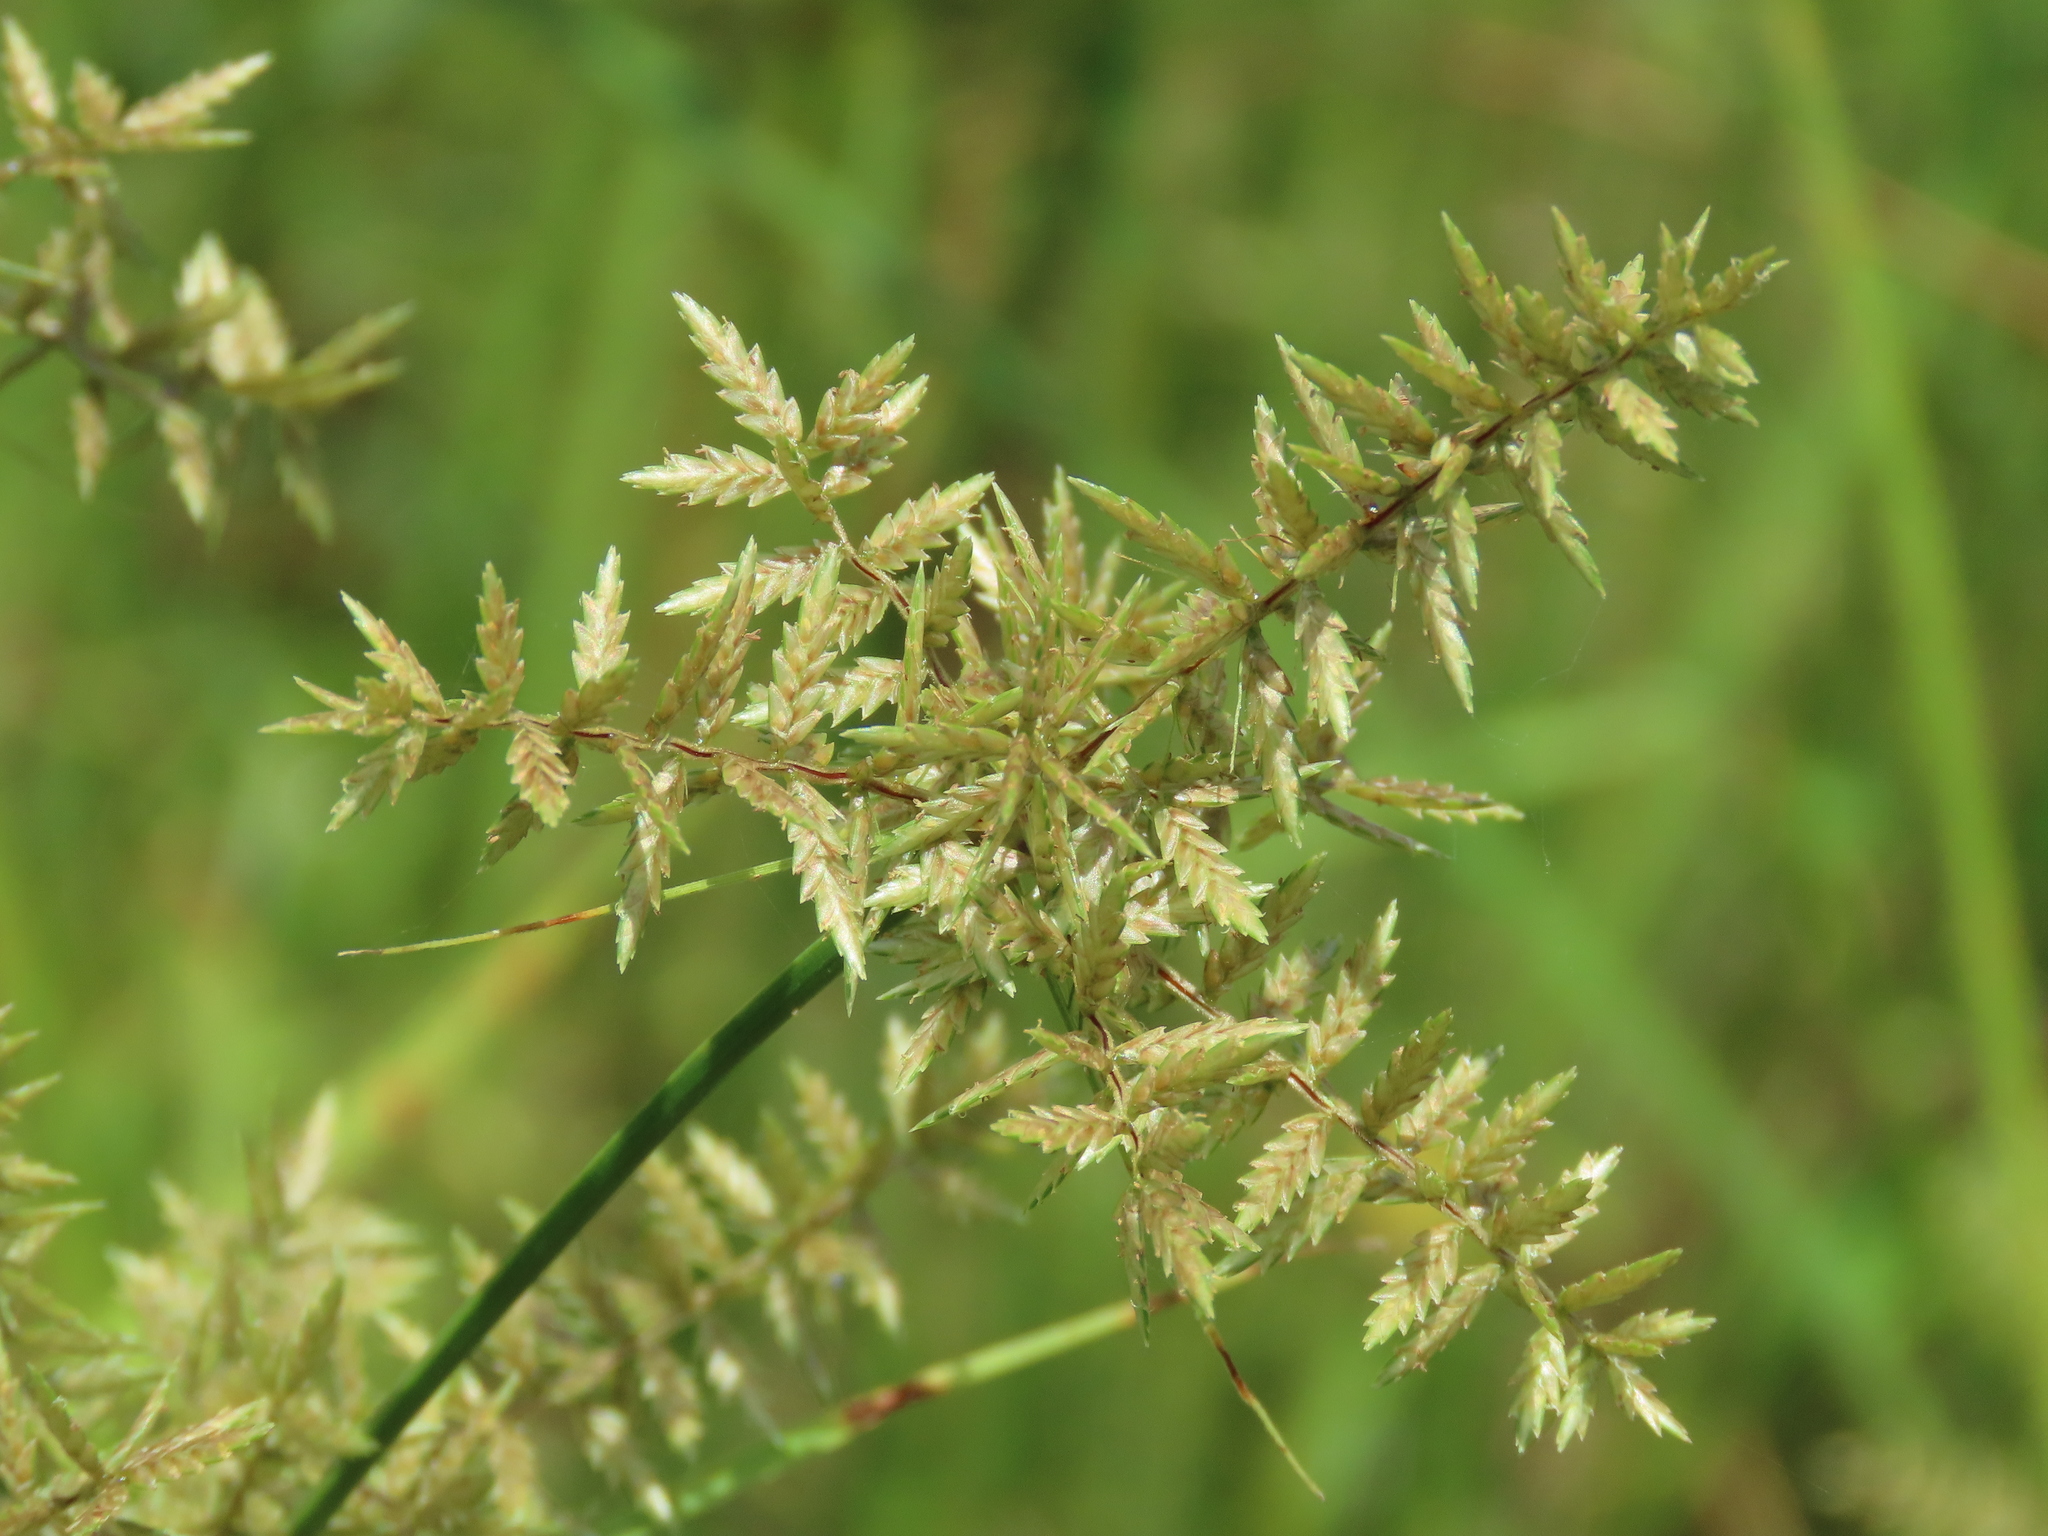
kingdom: Plantae
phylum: Tracheophyta
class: Liliopsida
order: Poales
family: Cyperaceae
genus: Cyperus
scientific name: Cyperus pilosus
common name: Fuzzy flatsedge
